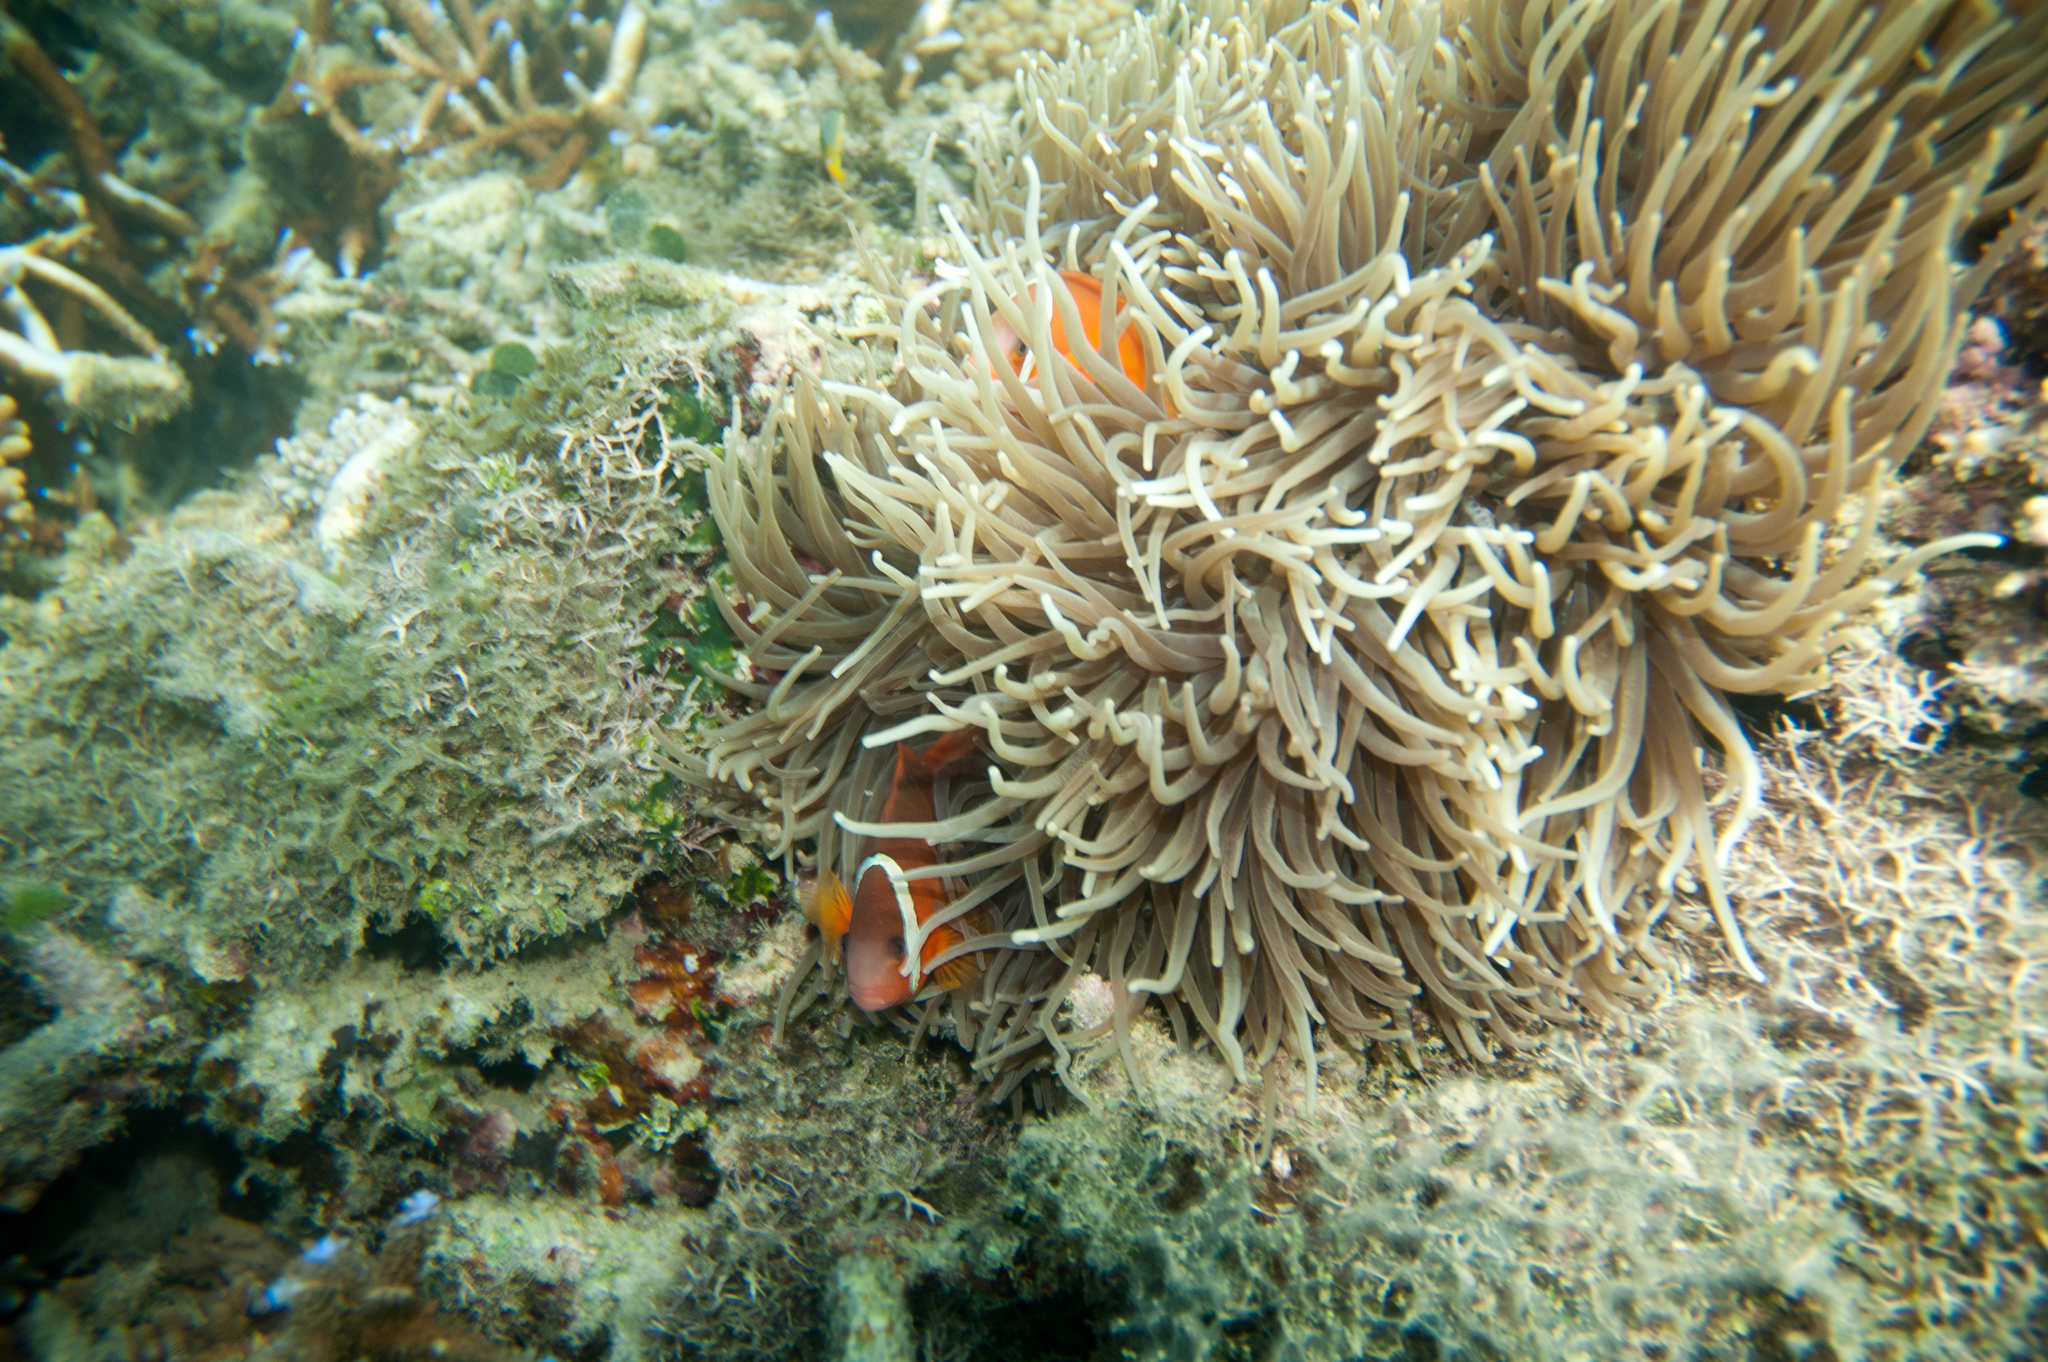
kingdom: Animalia
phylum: Cnidaria
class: Anthozoa
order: Actiniaria
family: Stichodactylidae
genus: Radianthus
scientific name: Radianthus crispa
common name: Leather anemone
